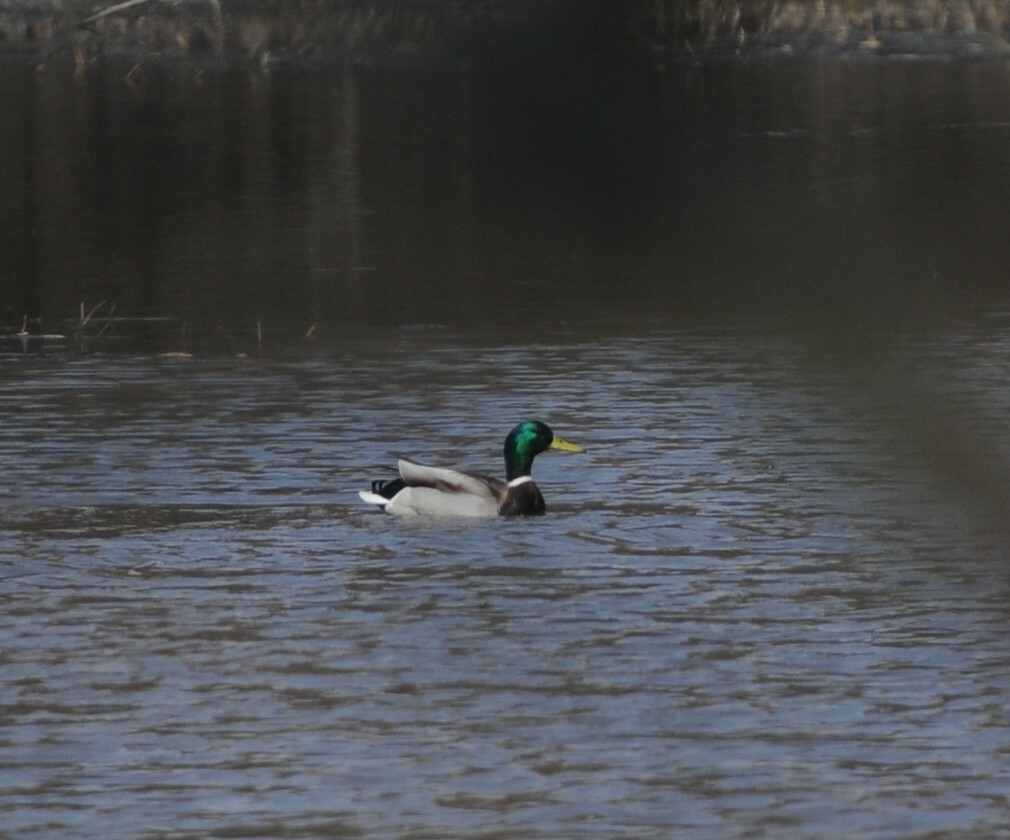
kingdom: Animalia
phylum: Chordata
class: Aves
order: Anseriformes
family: Anatidae
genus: Anas
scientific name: Anas platyrhynchos
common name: Mallard
